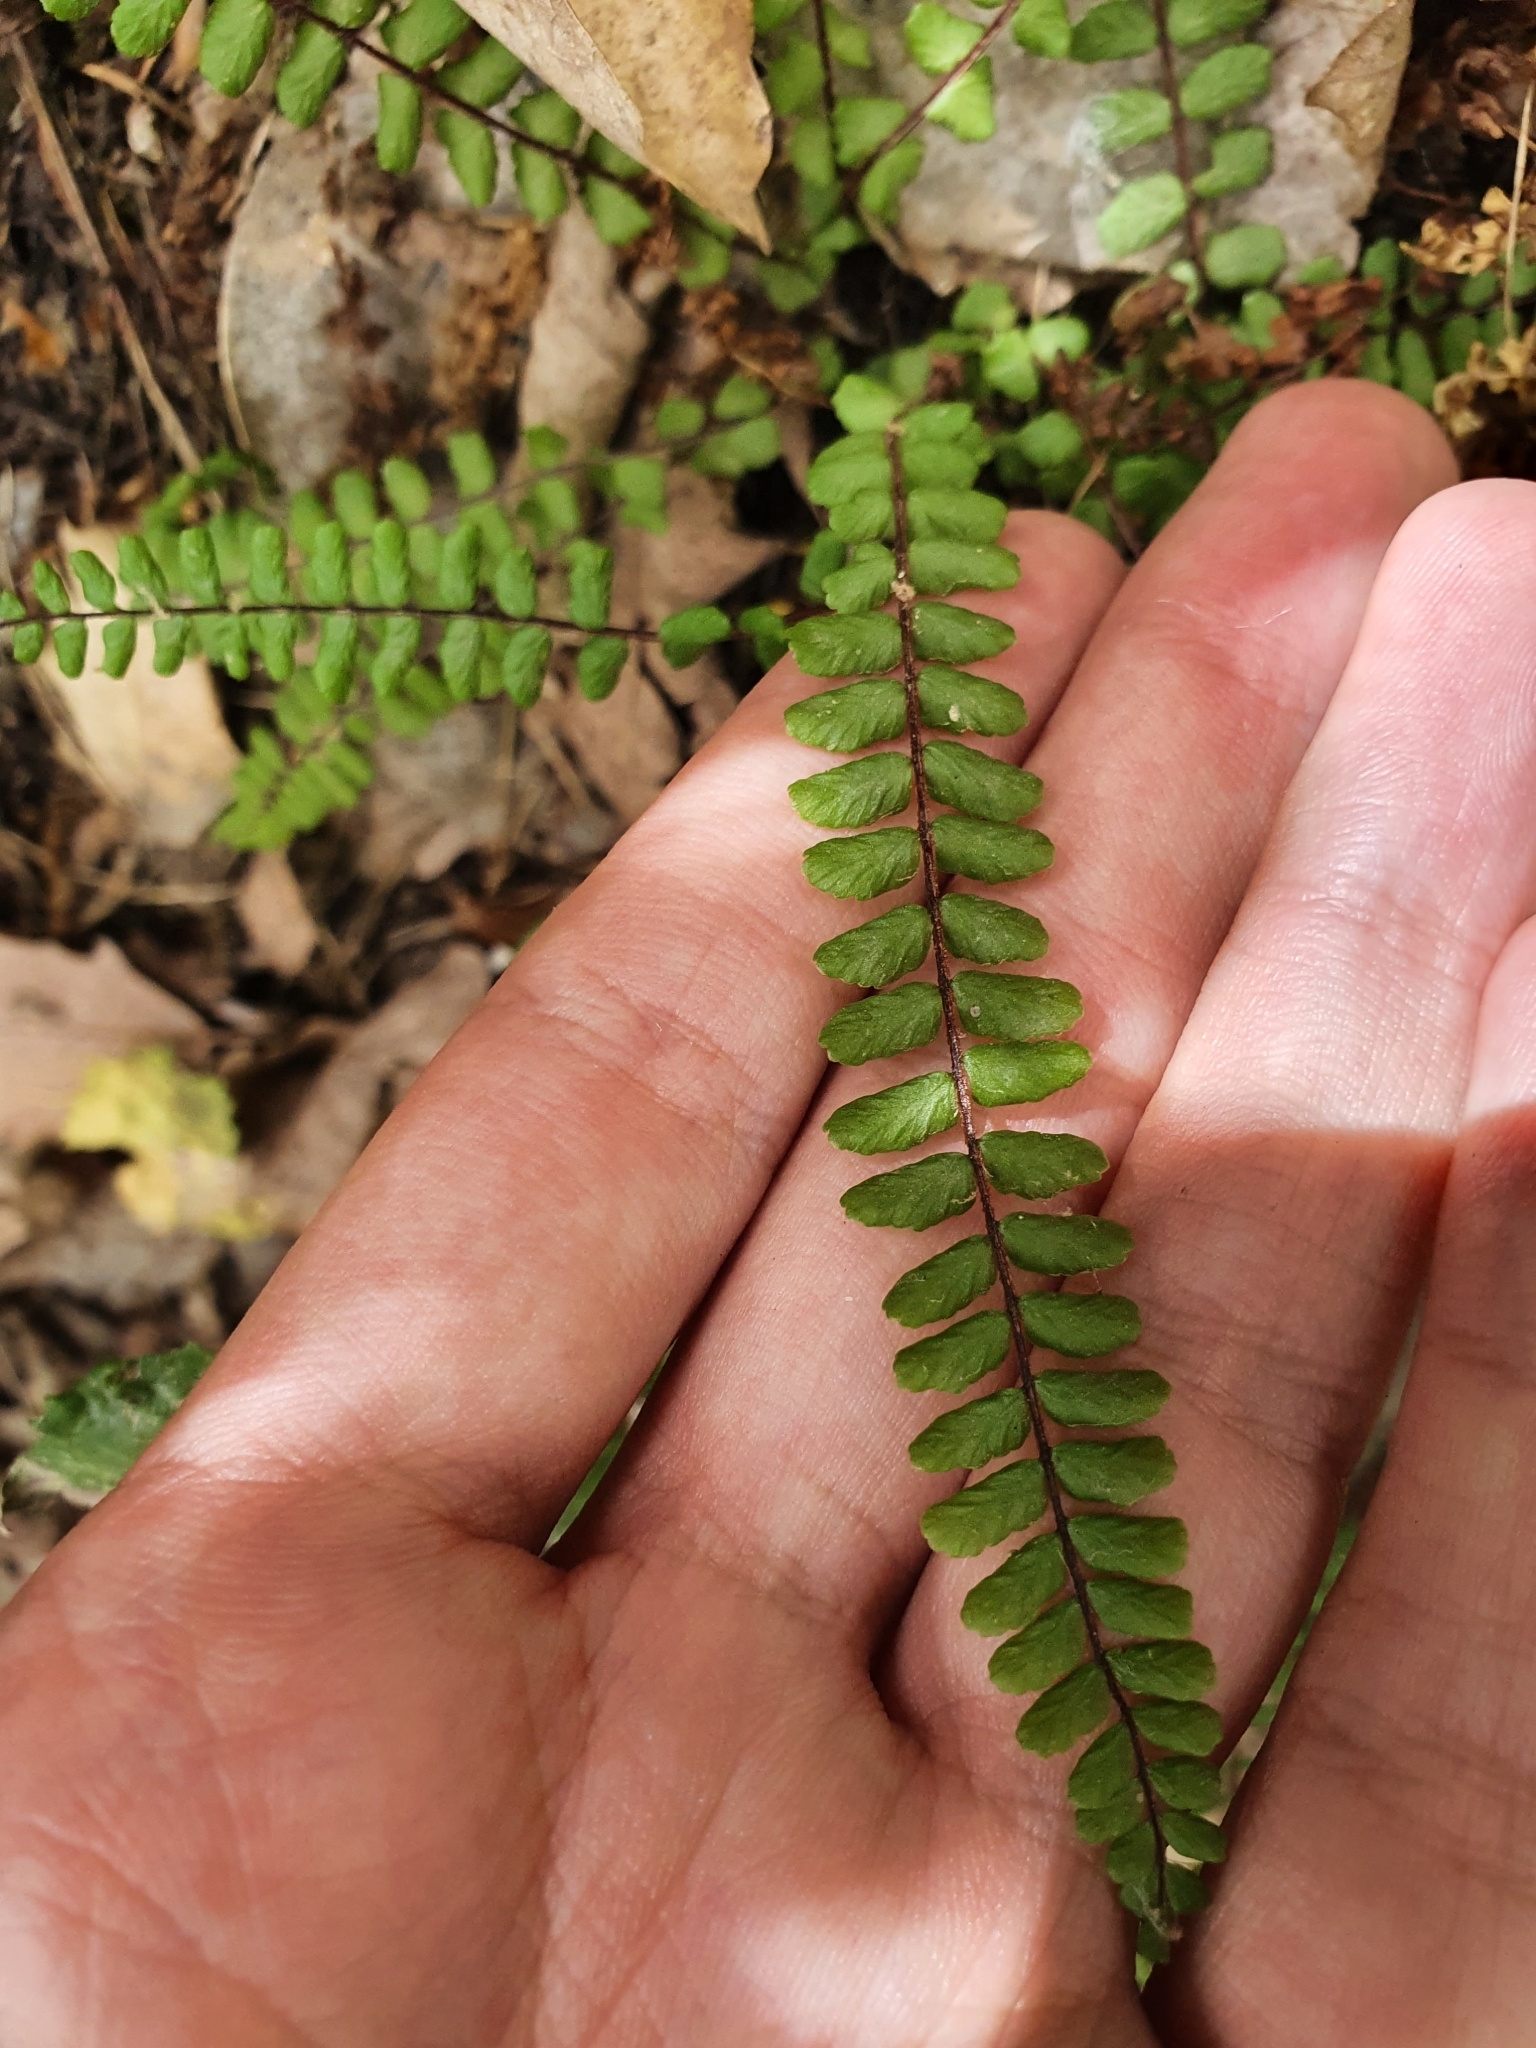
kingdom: Plantae
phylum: Tracheophyta
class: Polypodiopsida
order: Polypodiales
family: Aspleniaceae
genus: Asplenium
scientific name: Asplenium trichomanes
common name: Maidenhair spleenwort
